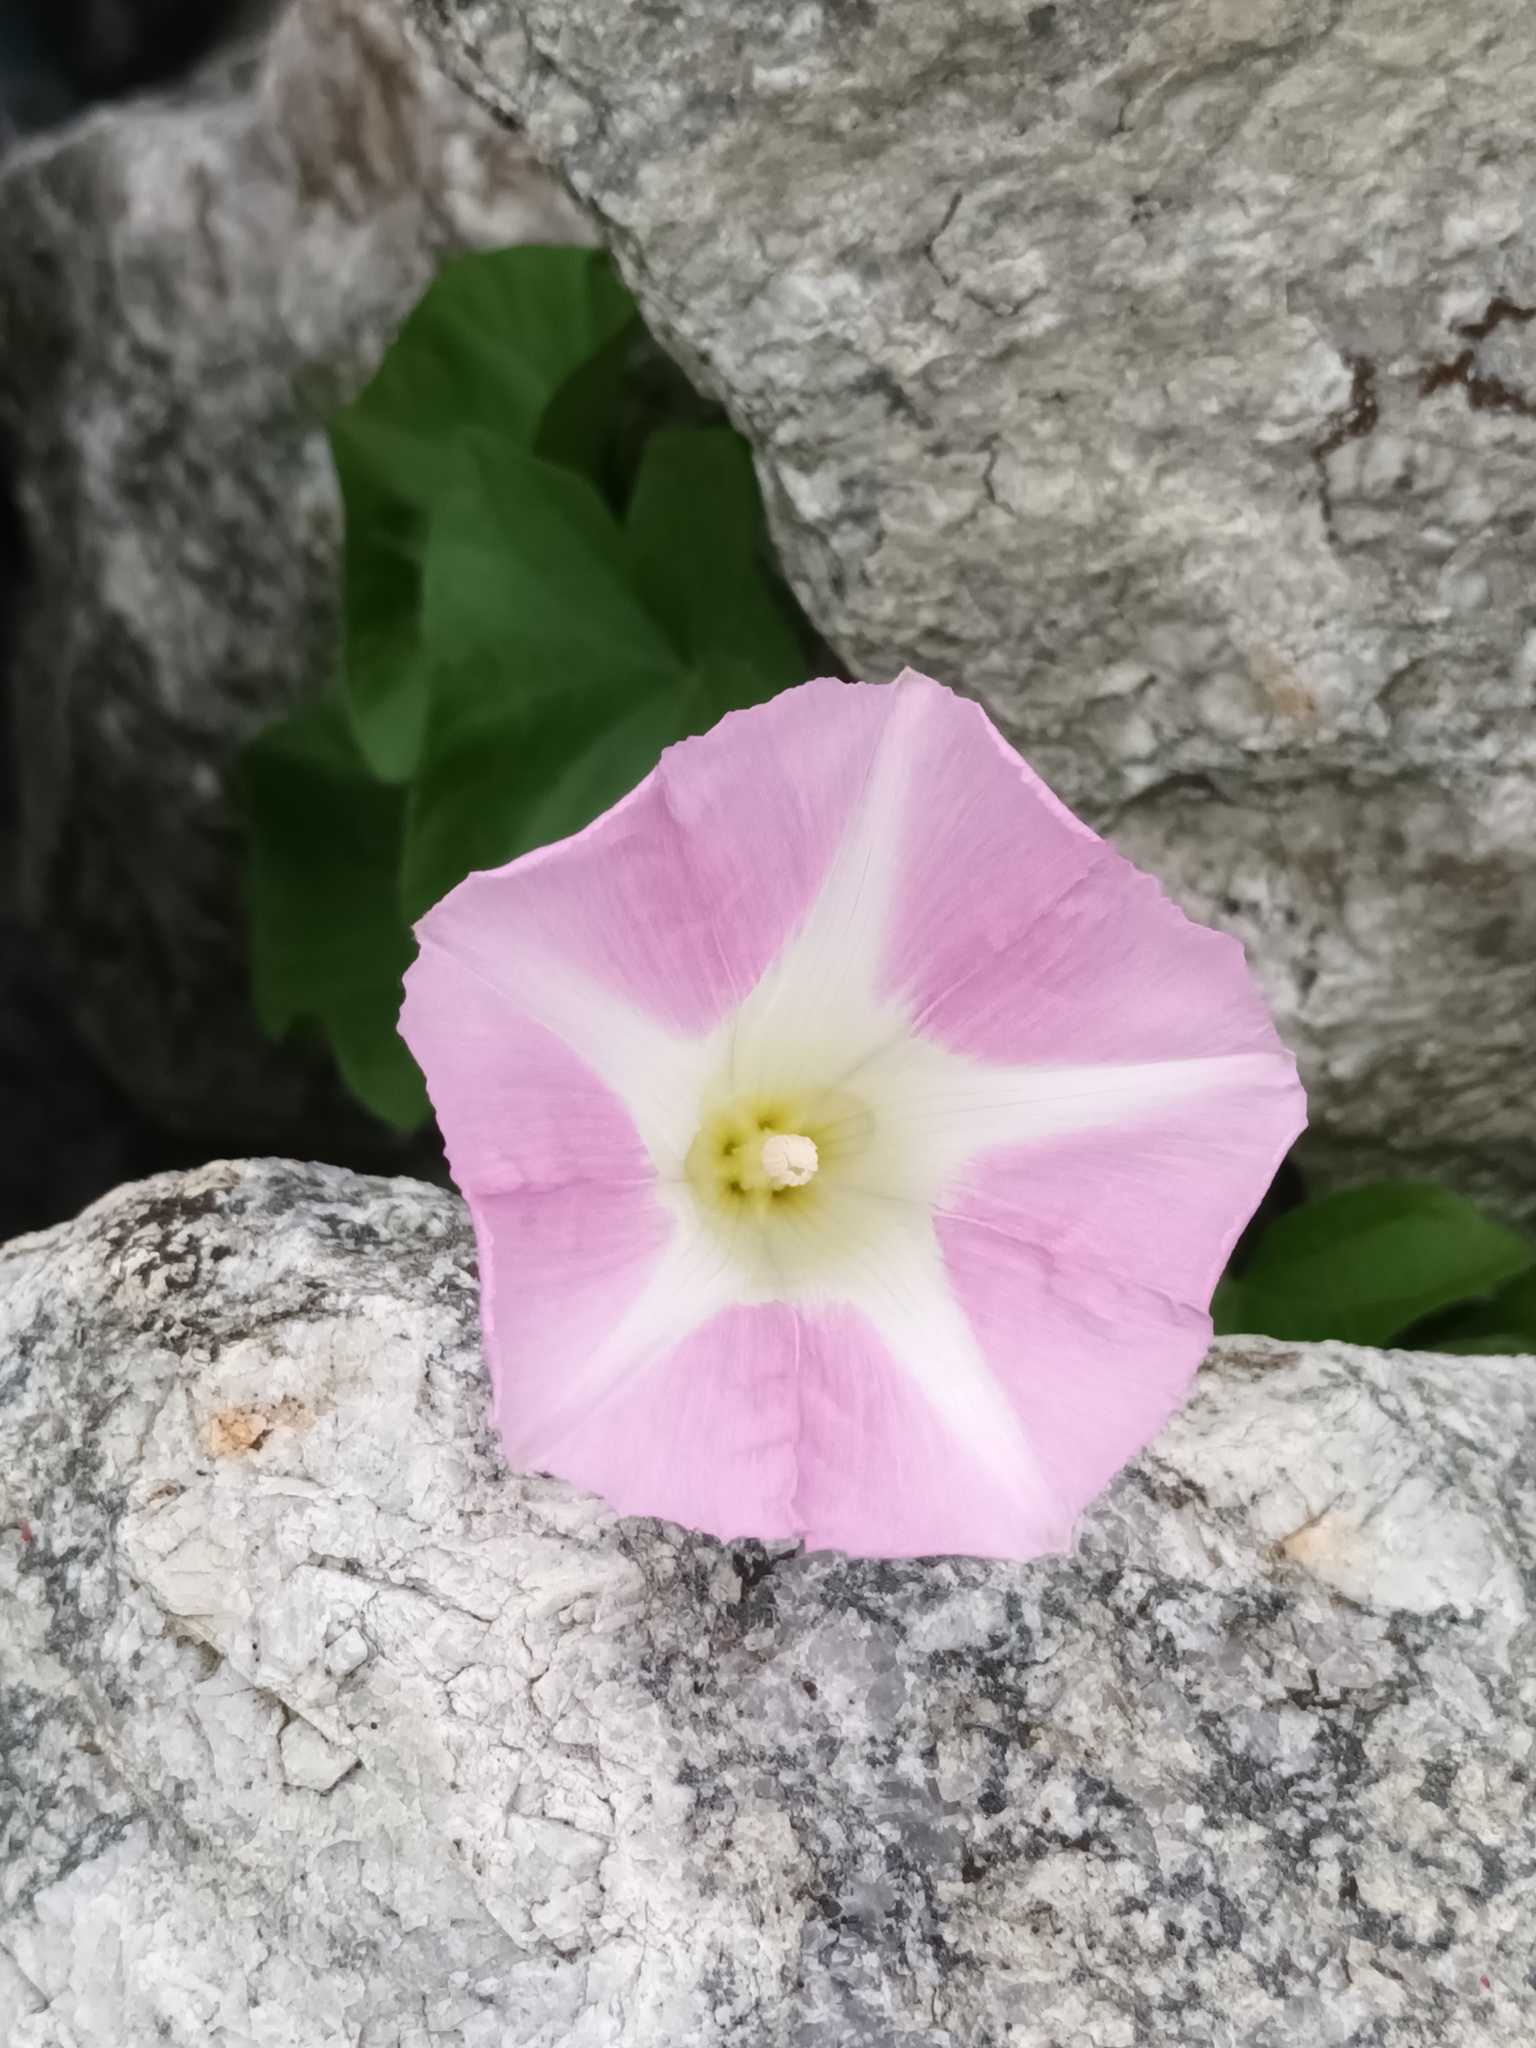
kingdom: Plantae
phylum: Tracheophyta
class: Magnoliopsida
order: Solanales
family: Convolvulaceae
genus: Calystegia
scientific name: Calystegia sepium
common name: Hedge bindweed
